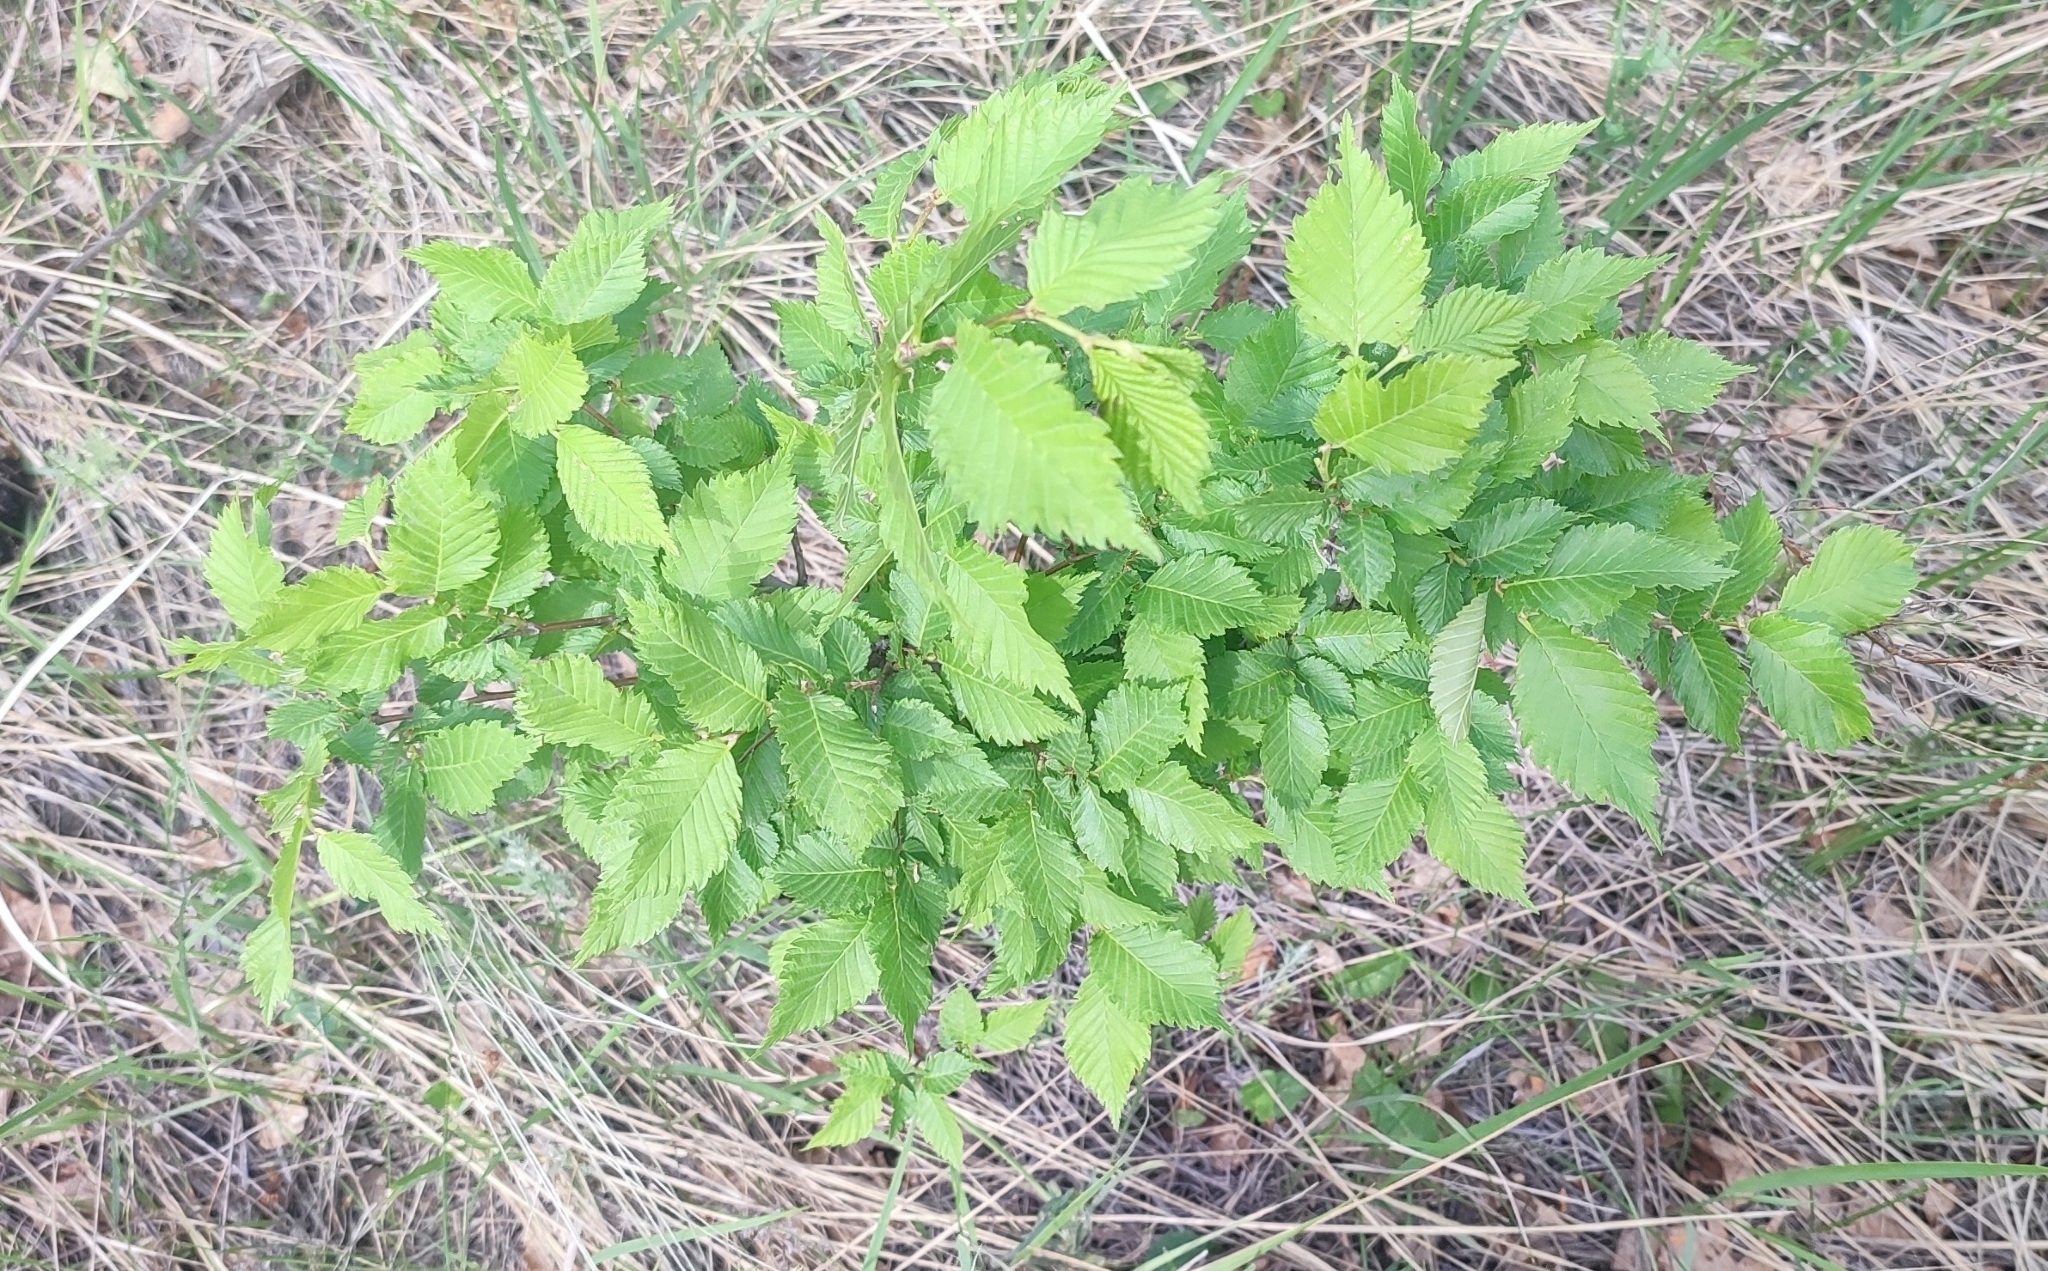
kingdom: Plantae
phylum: Tracheophyta
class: Magnoliopsida
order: Rosales
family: Ulmaceae
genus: Ulmus
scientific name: Ulmus laevis
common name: European white-elm
